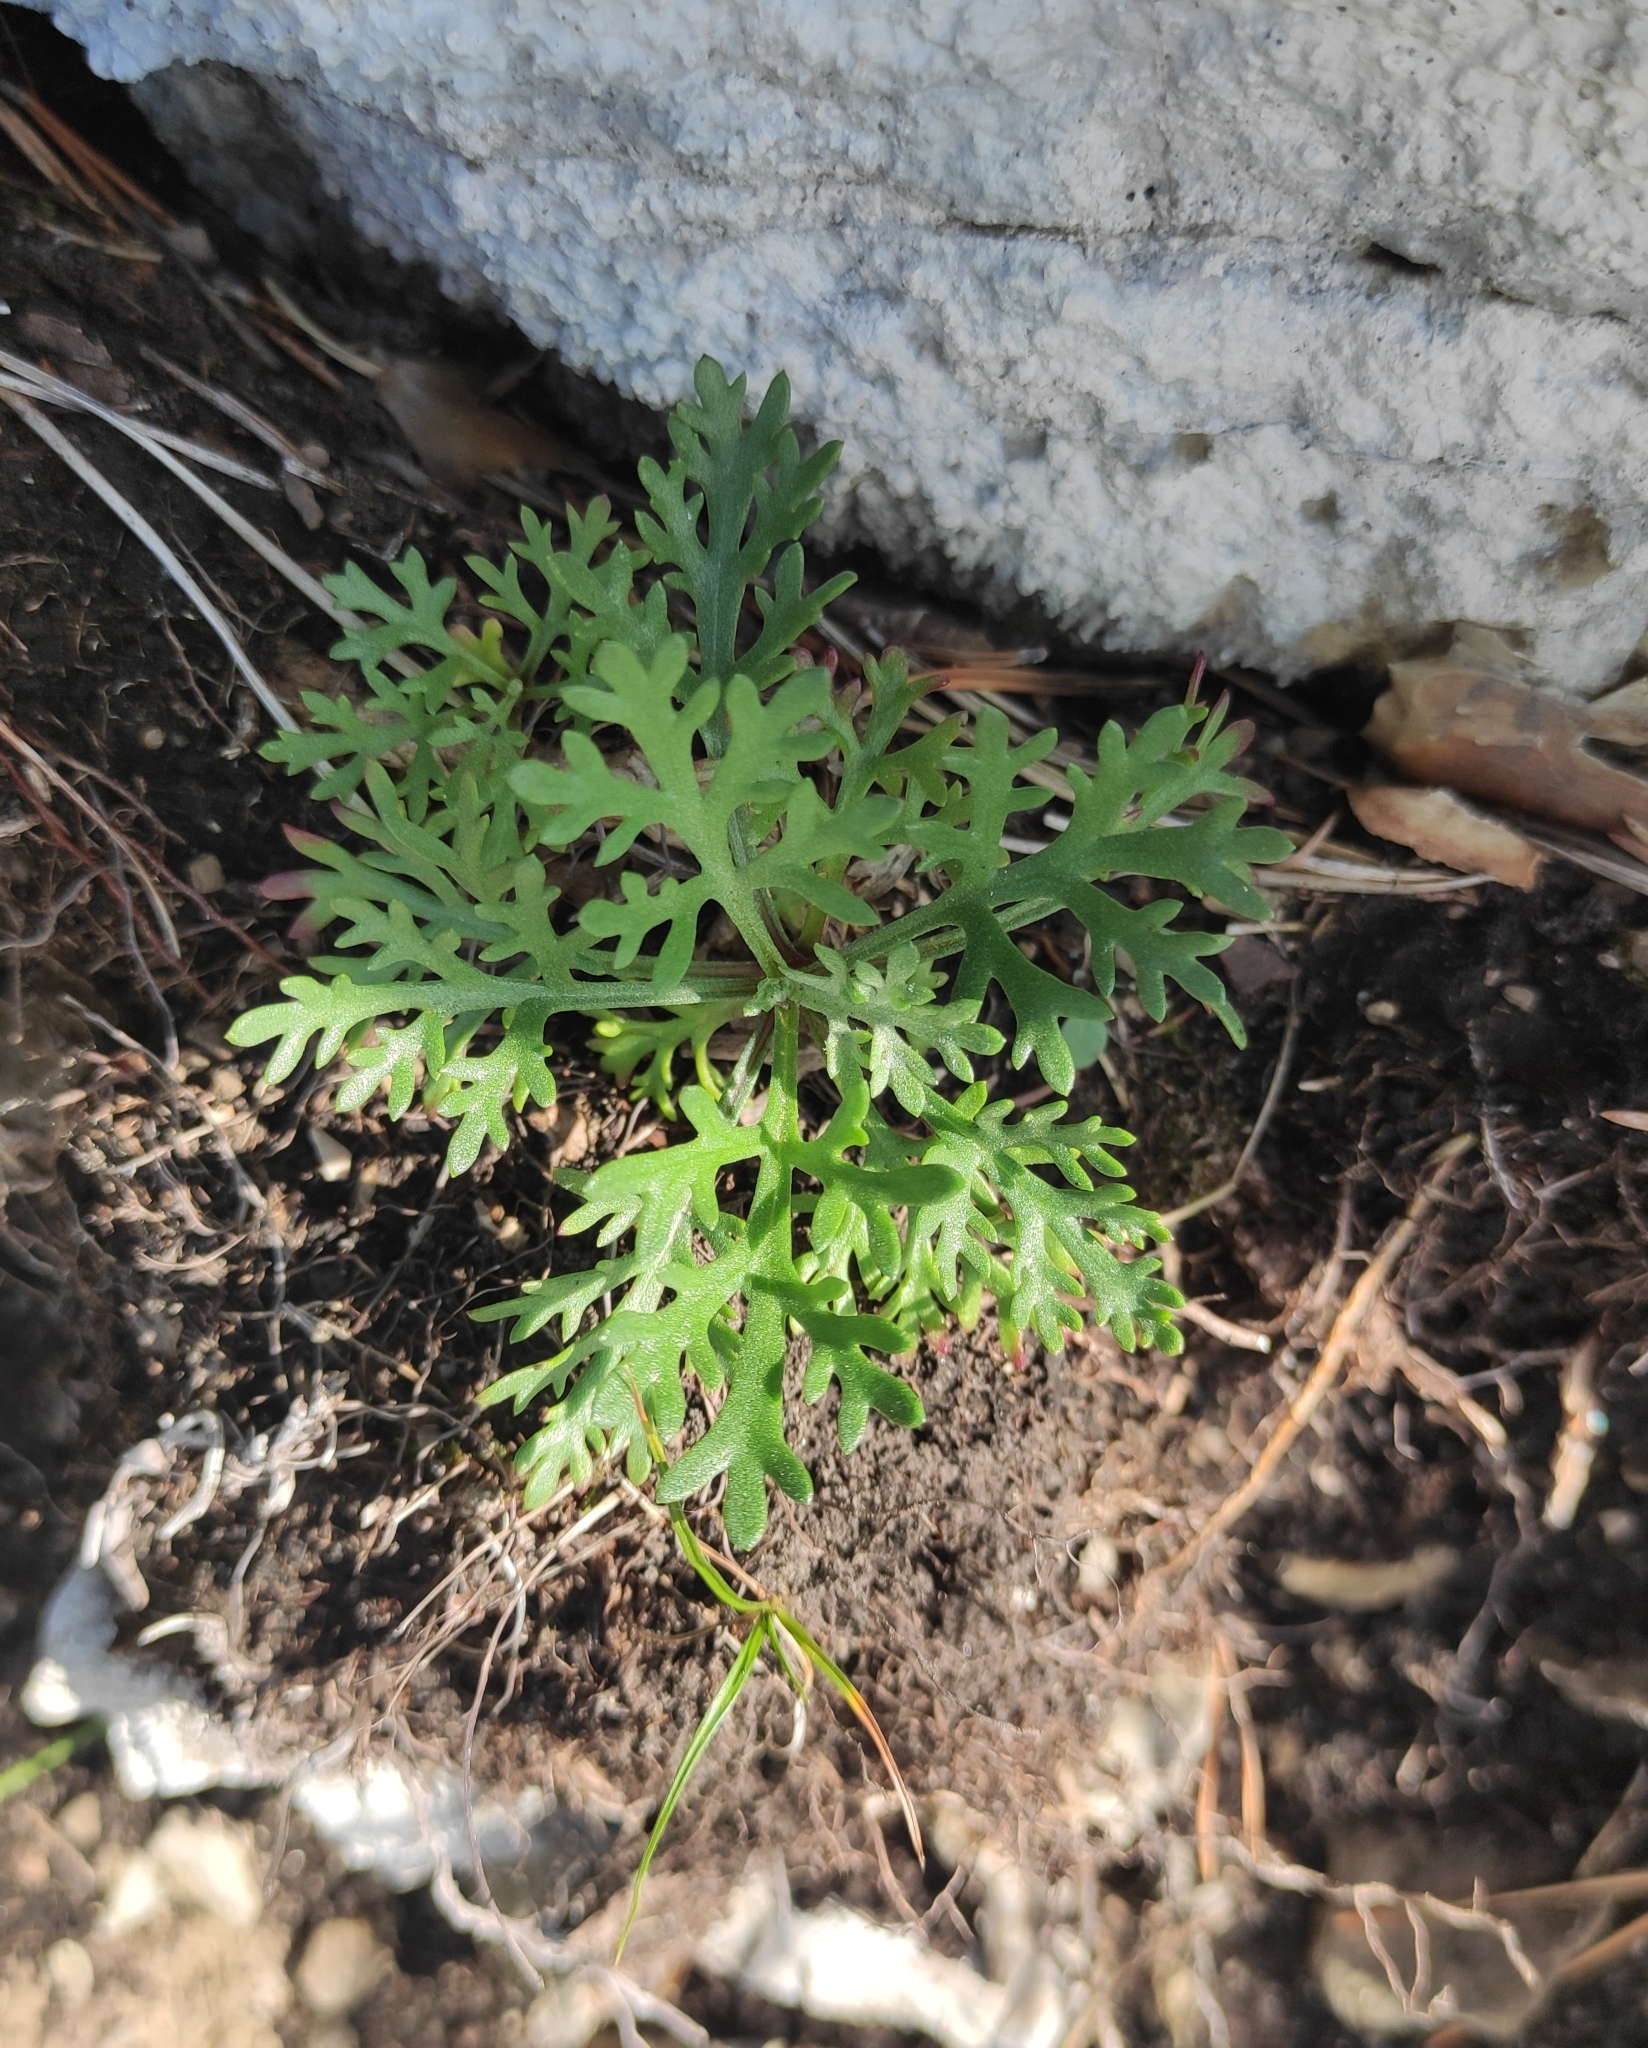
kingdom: Plantae
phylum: Tracheophyta
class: Magnoliopsida
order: Asterales
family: Asteraceae
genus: Chrysanthemum
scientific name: Chrysanthemum zawadzkii
